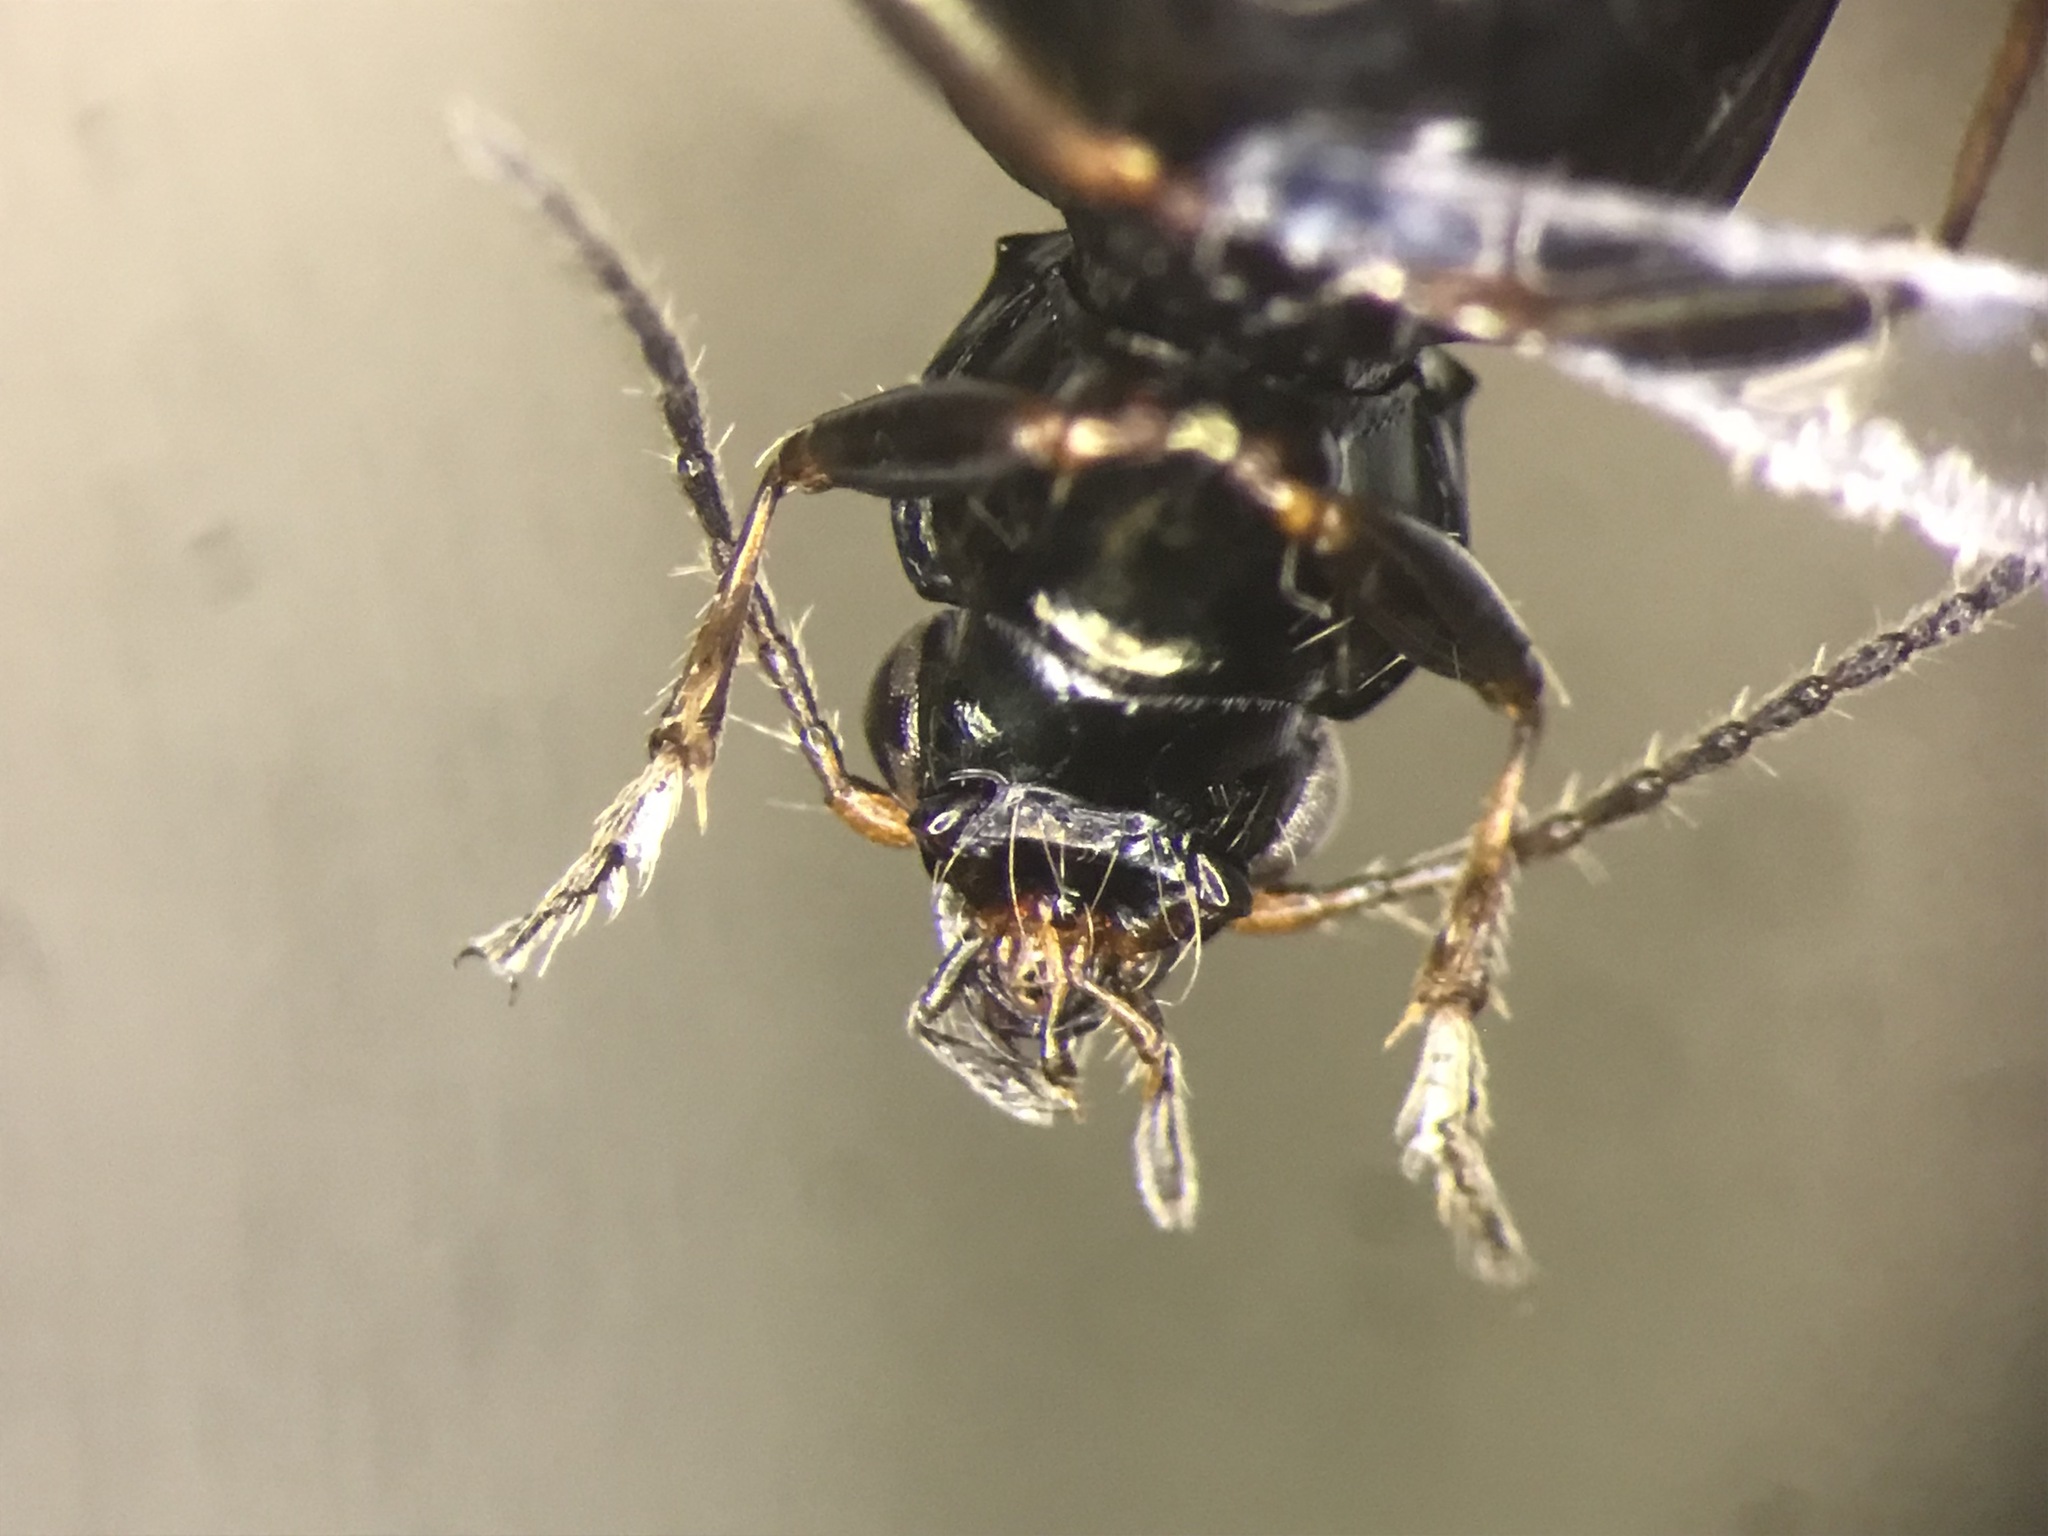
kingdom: Animalia
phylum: Arthropoda
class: Insecta
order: Coleoptera
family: Carabidae
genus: Bembidion
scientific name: Bembidion americanum
